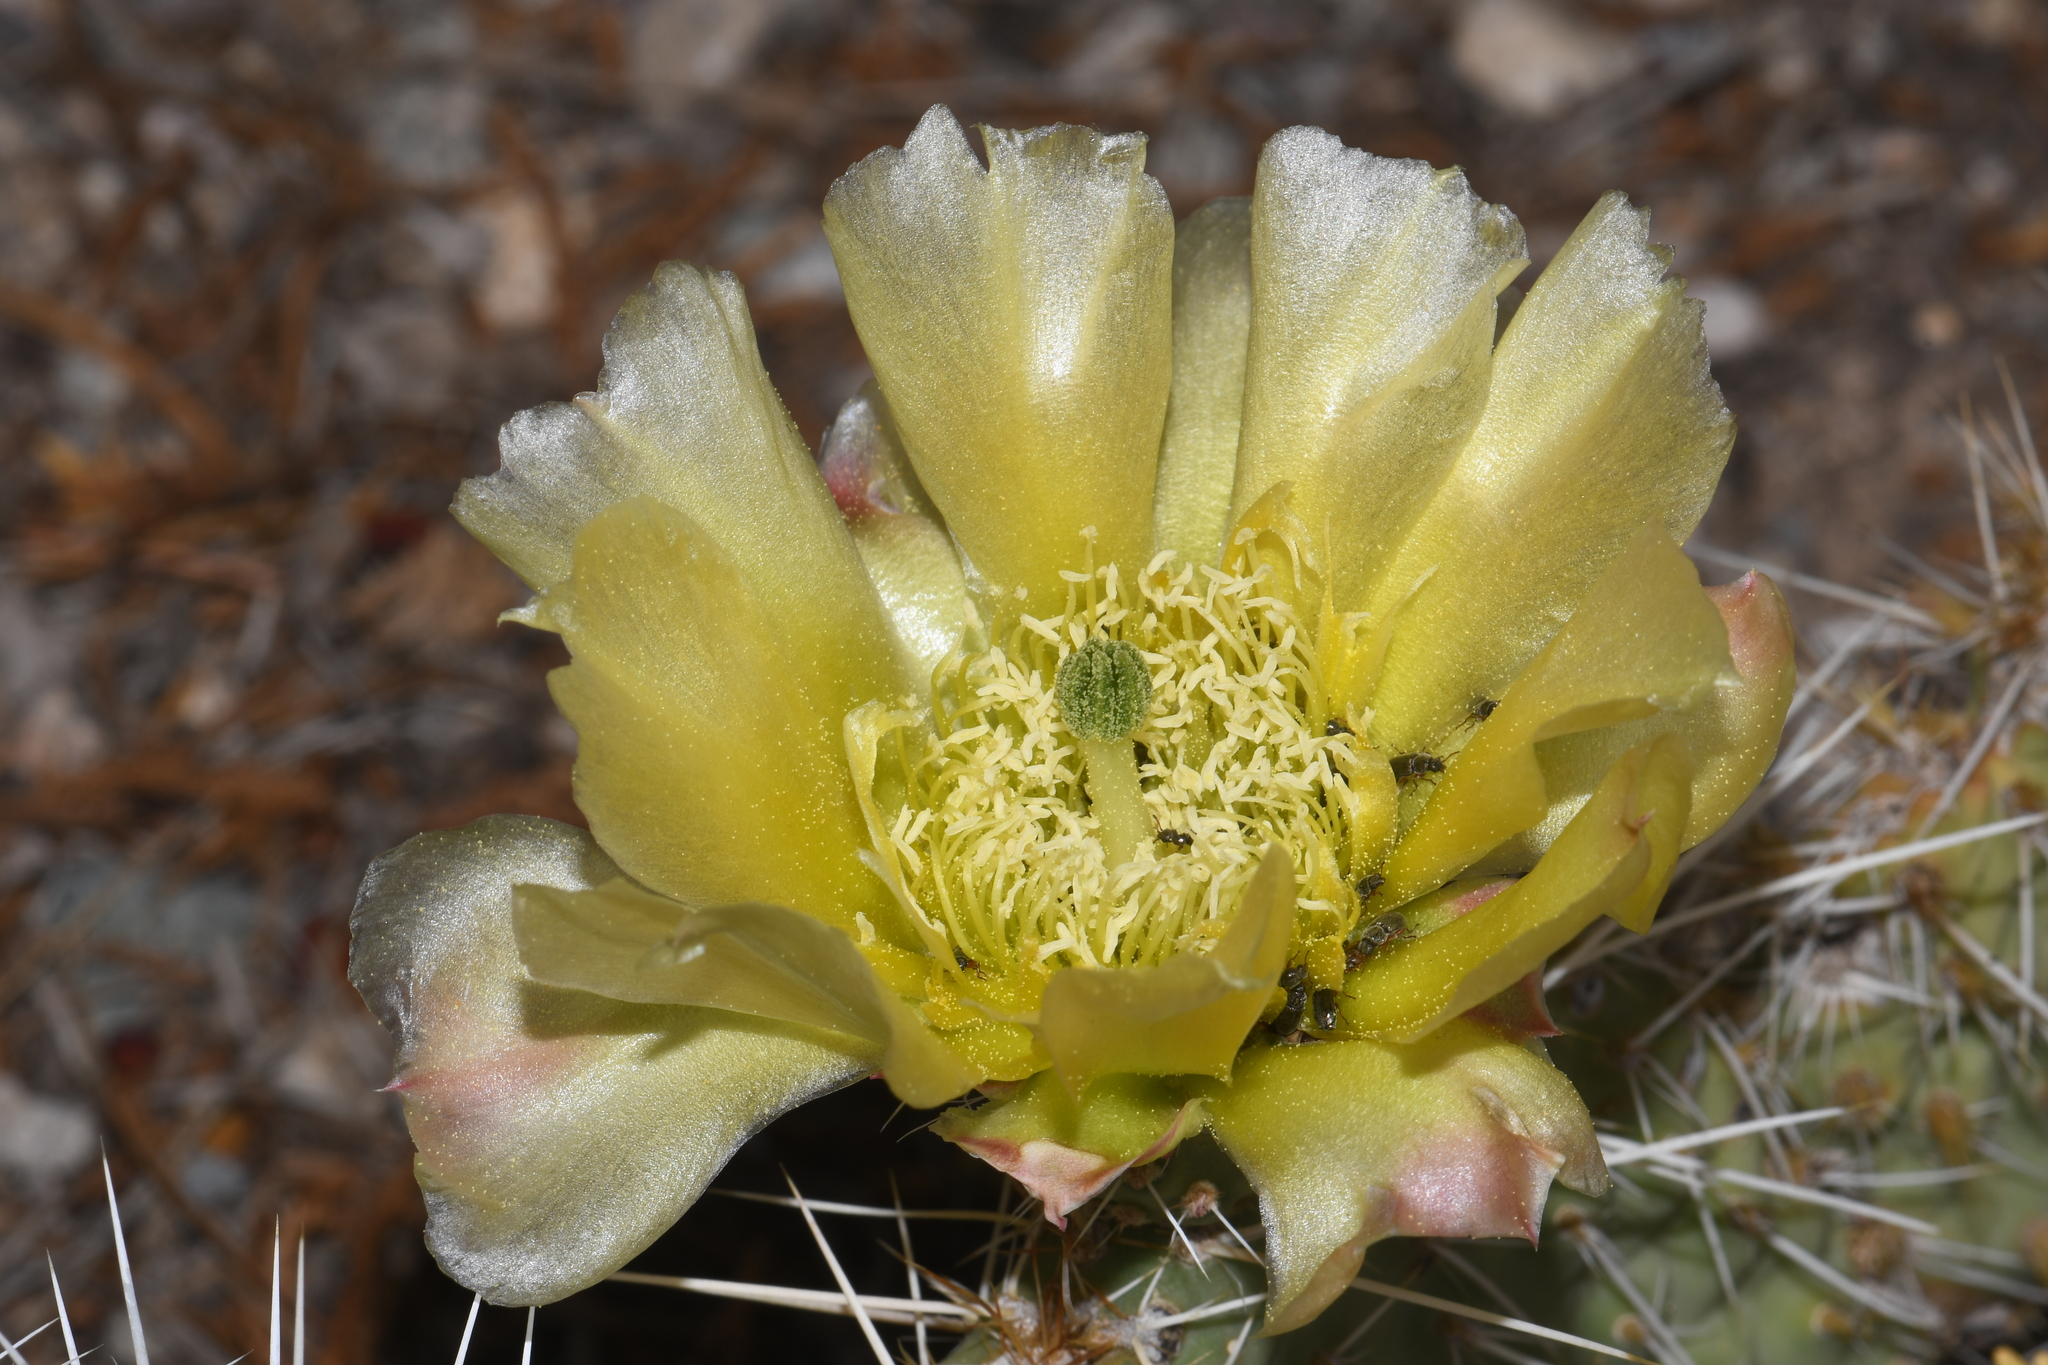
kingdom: Plantae
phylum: Tracheophyta
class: Magnoliopsida
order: Caryophyllales
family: Cactaceae
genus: Opuntia
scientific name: Opuntia polyacantha
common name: Plains prickly-pear
